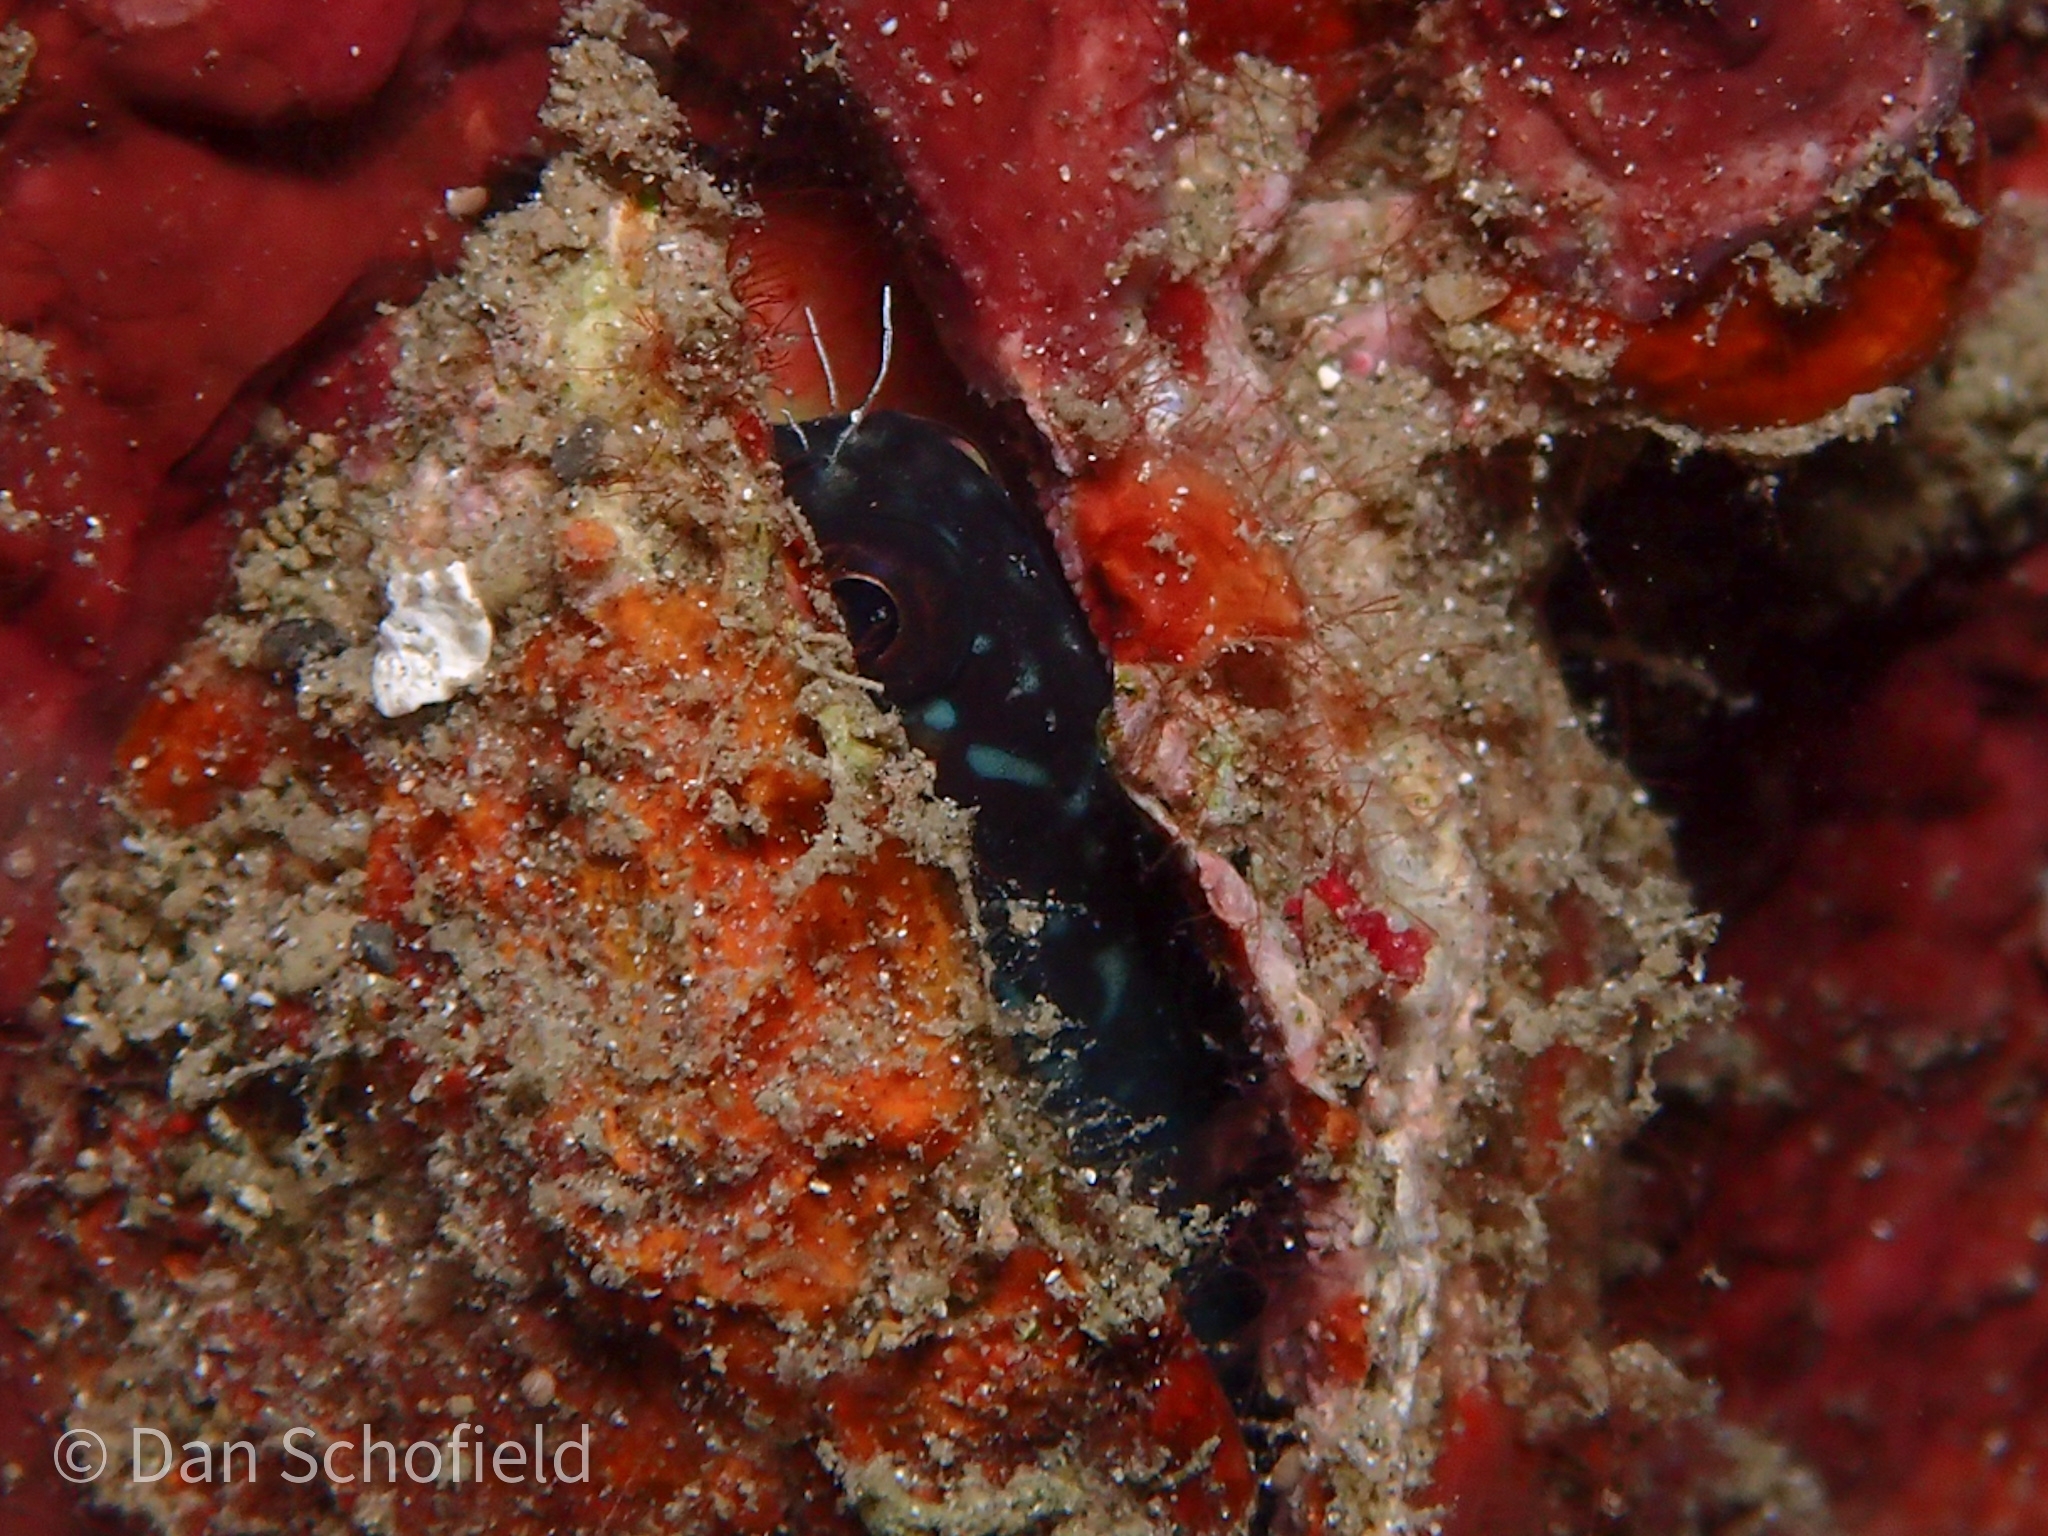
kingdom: Animalia
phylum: Chordata
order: Perciformes
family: Blenniidae
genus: Ecsenius
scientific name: Ecsenius namiyei
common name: Black comb-tooth
